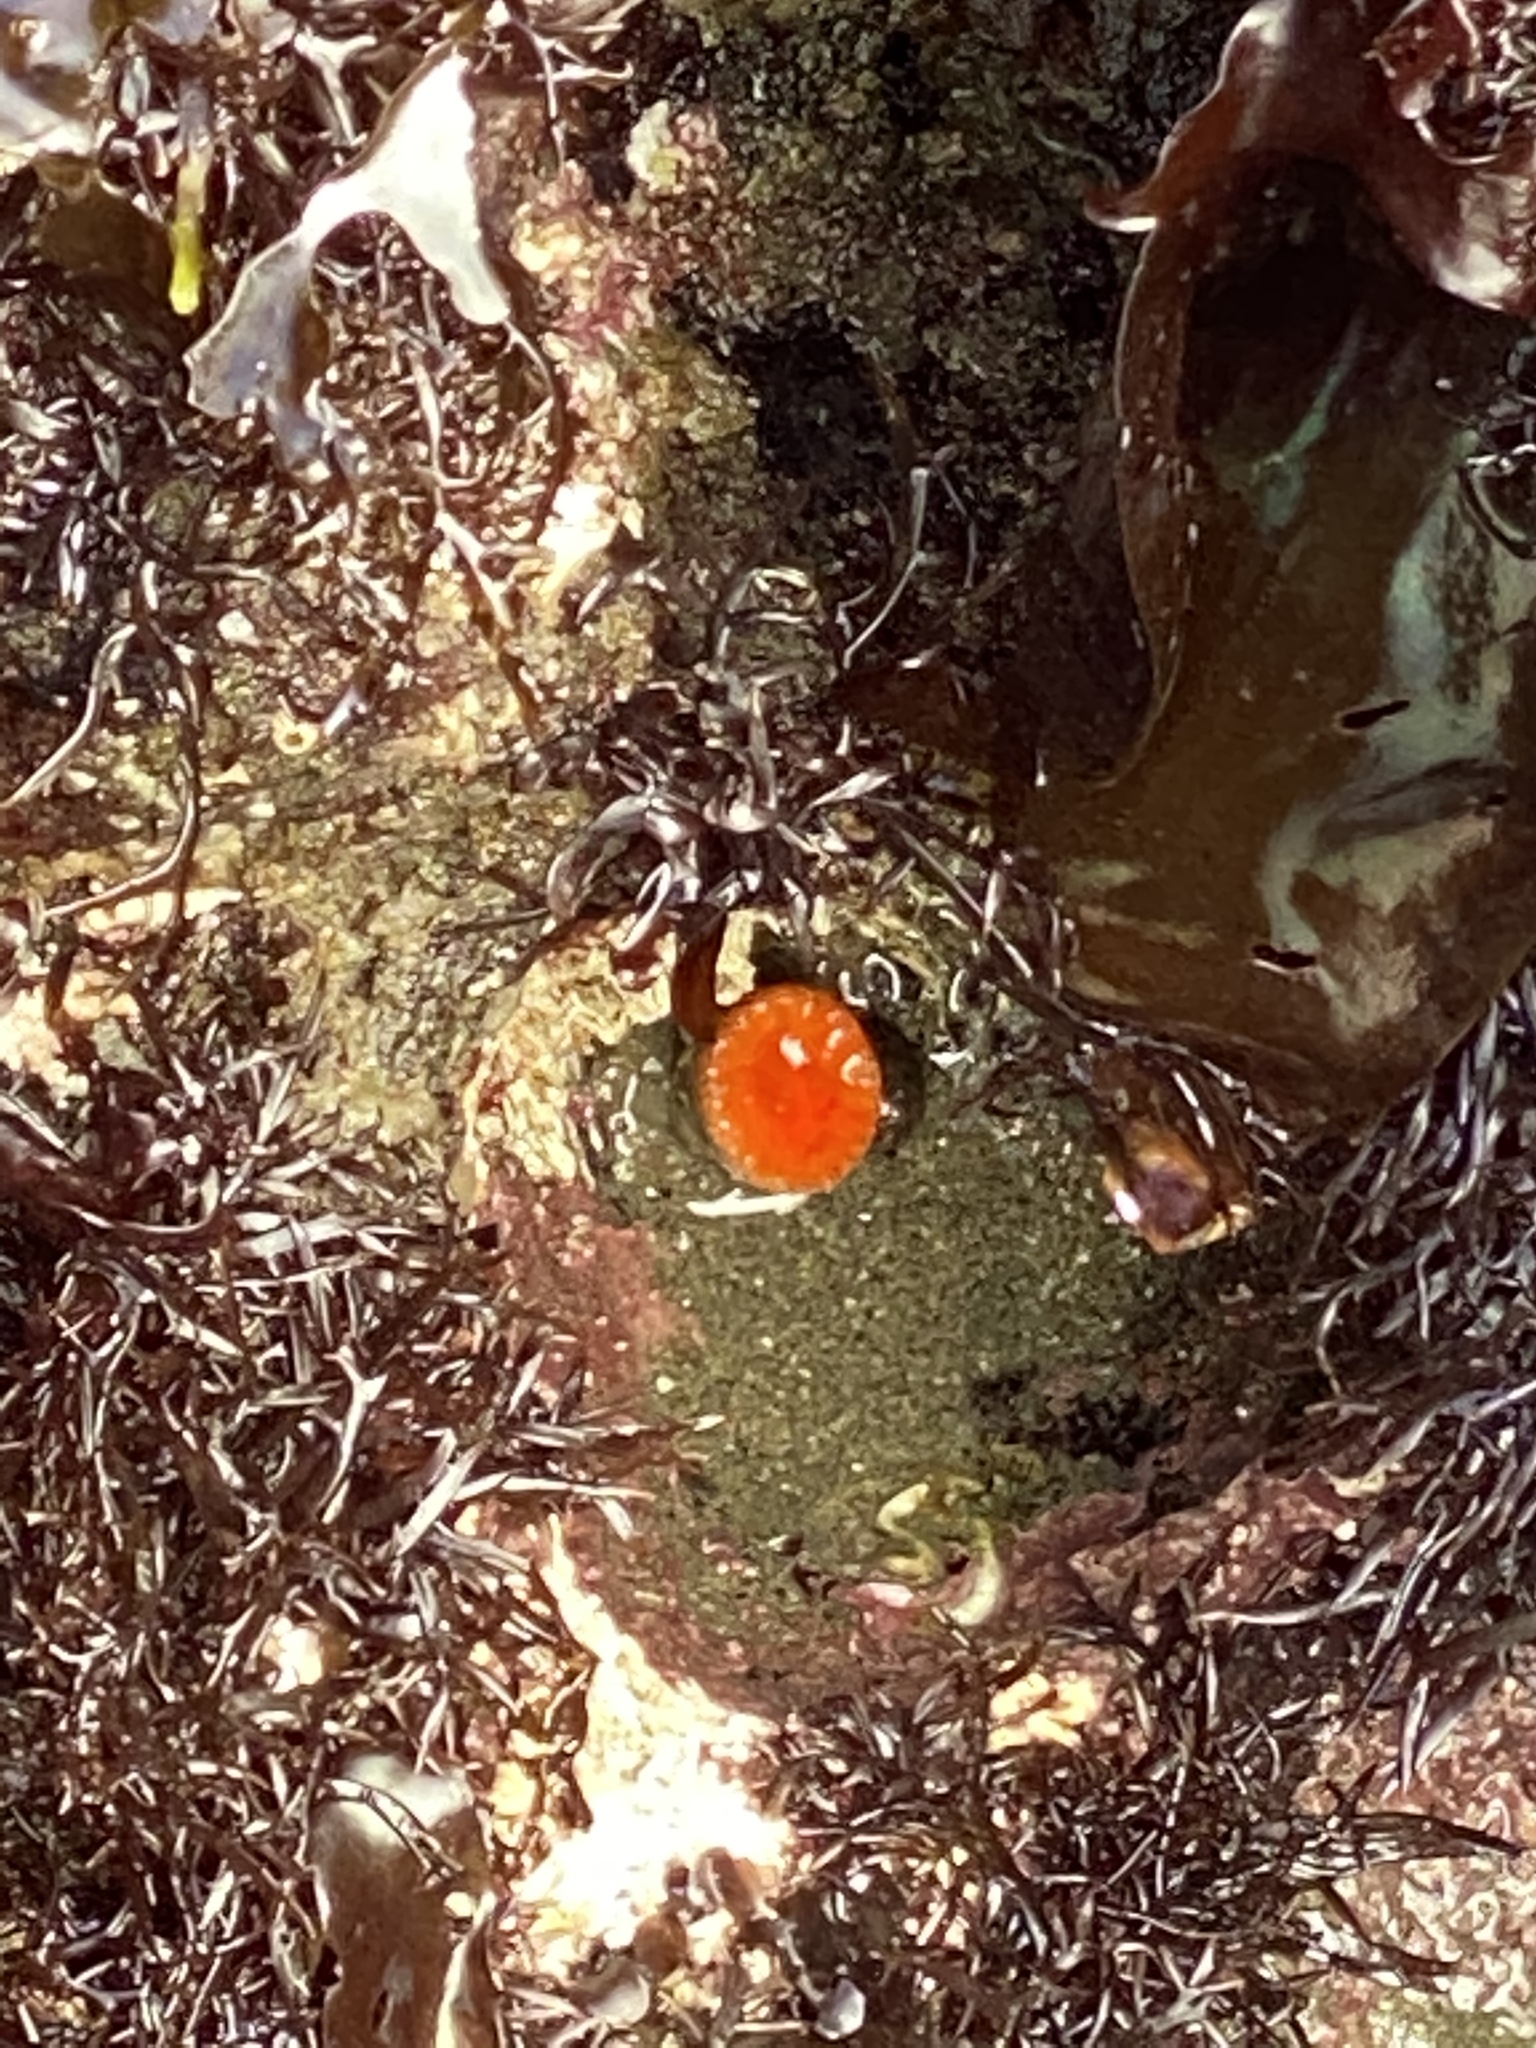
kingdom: Animalia
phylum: Cnidaria
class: Anthozoa
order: Scleractinia
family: Dendrophylliidae
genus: Balanophyllia
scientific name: Balanophyllia elegans
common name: Orange stony coral
